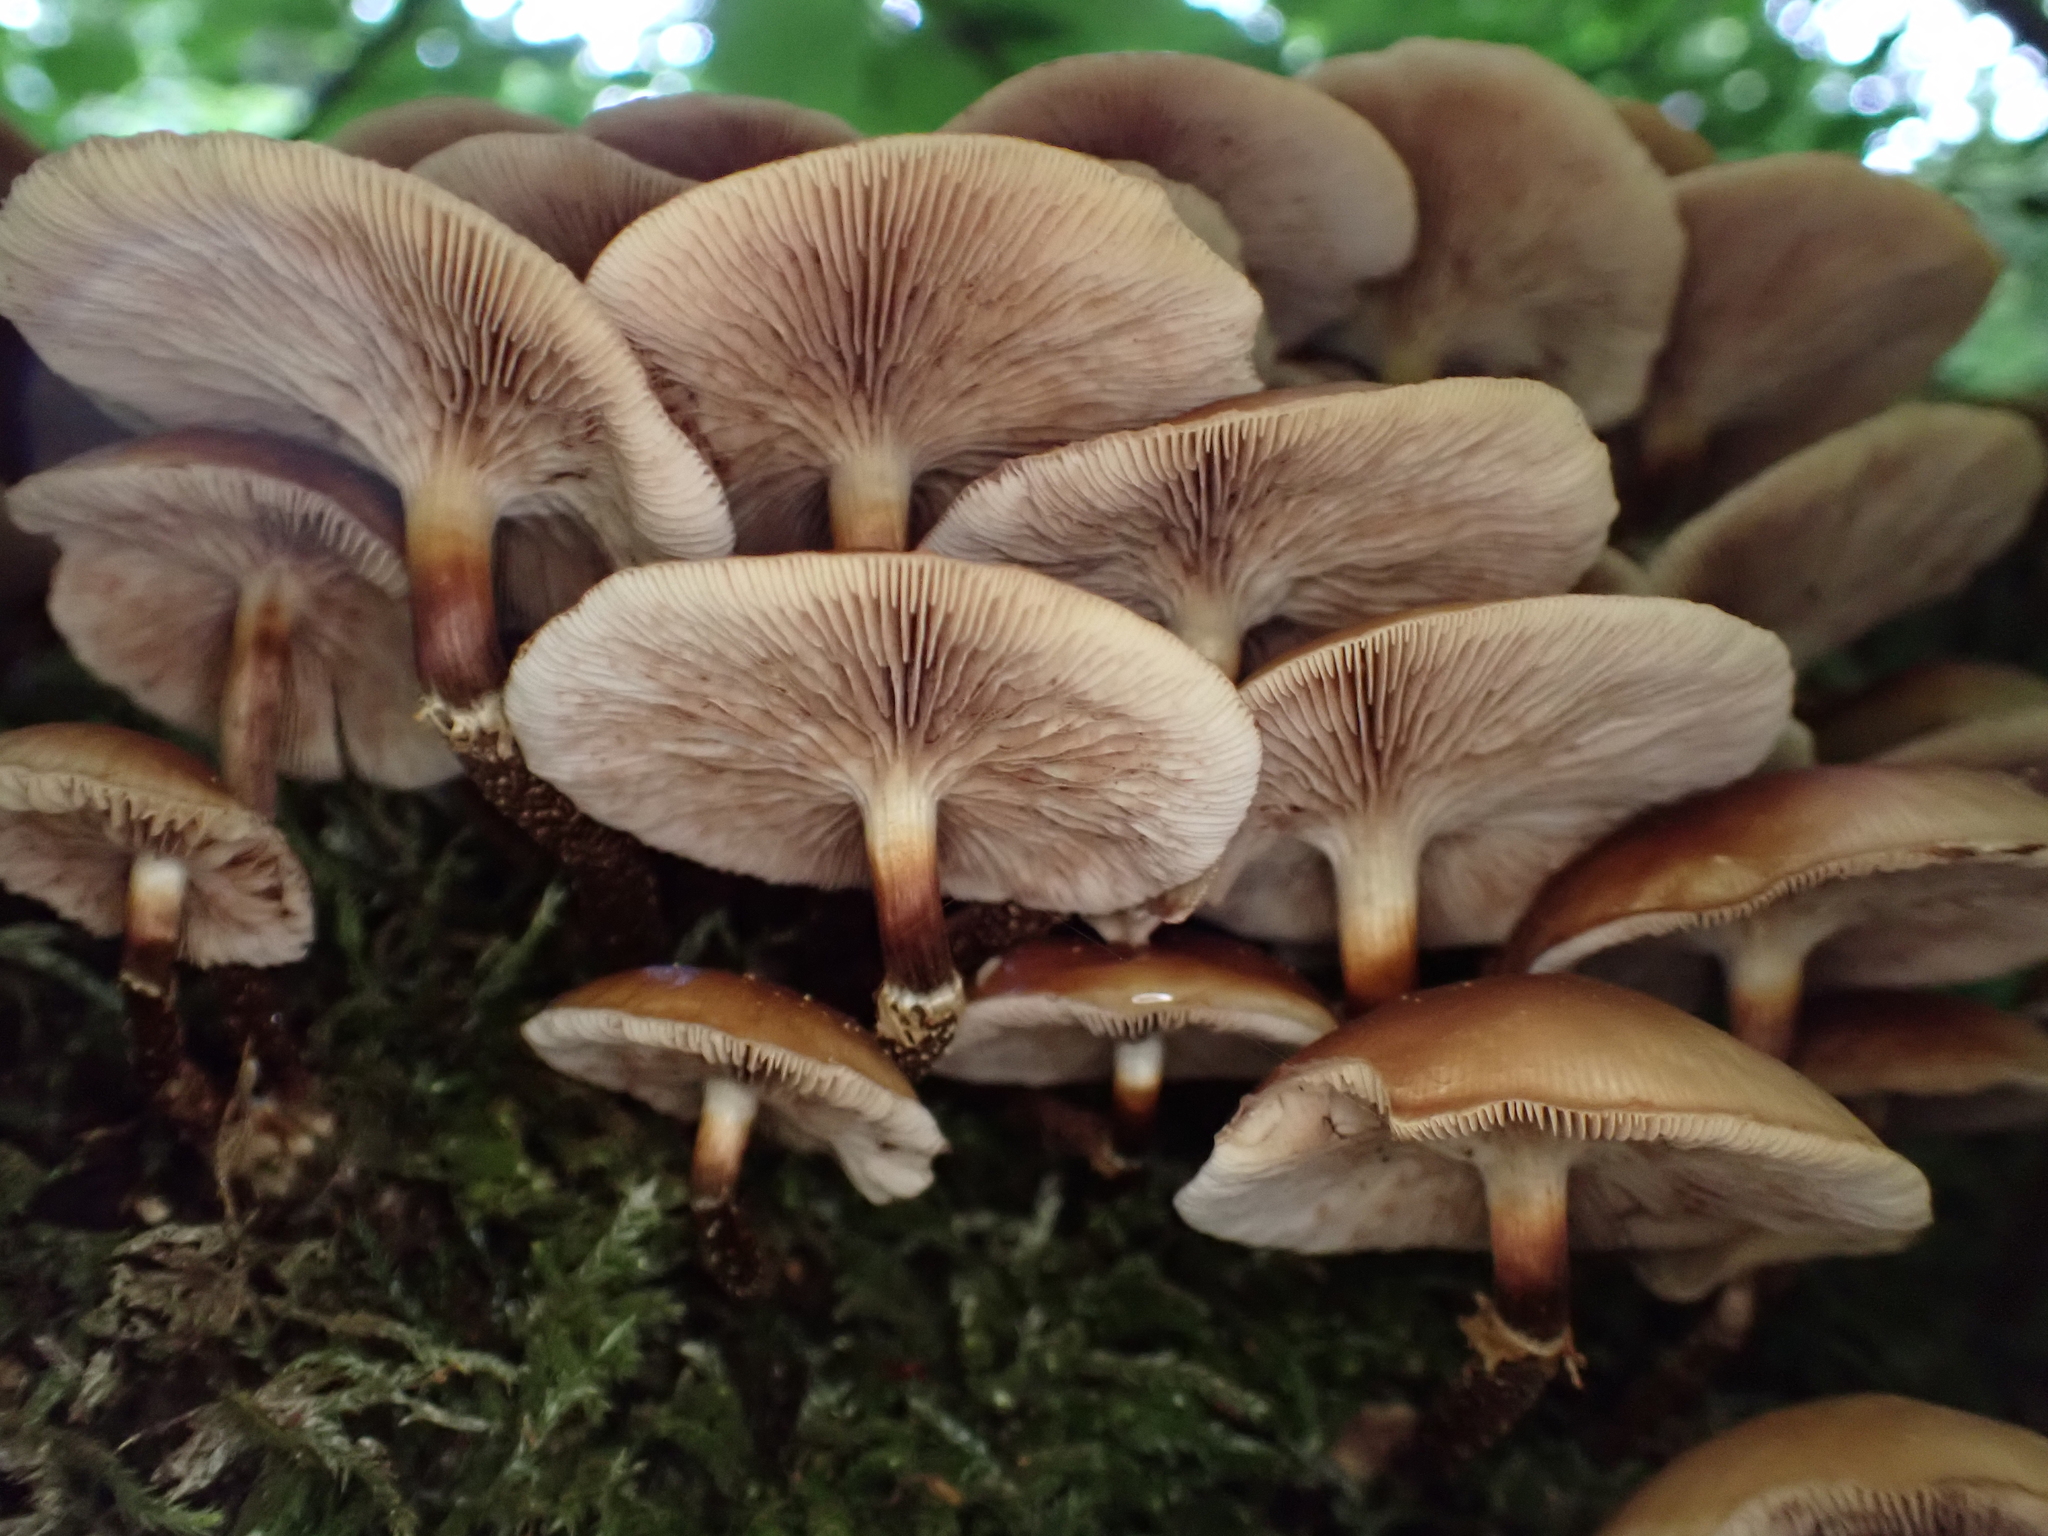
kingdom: Fungi
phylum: Basidiomycota
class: Agaricomycetes
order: Agaricales
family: Strophariaceae
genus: Kuehneromyces
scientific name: Kuehneromyces mutabilis
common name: Sheathed woodtuft
